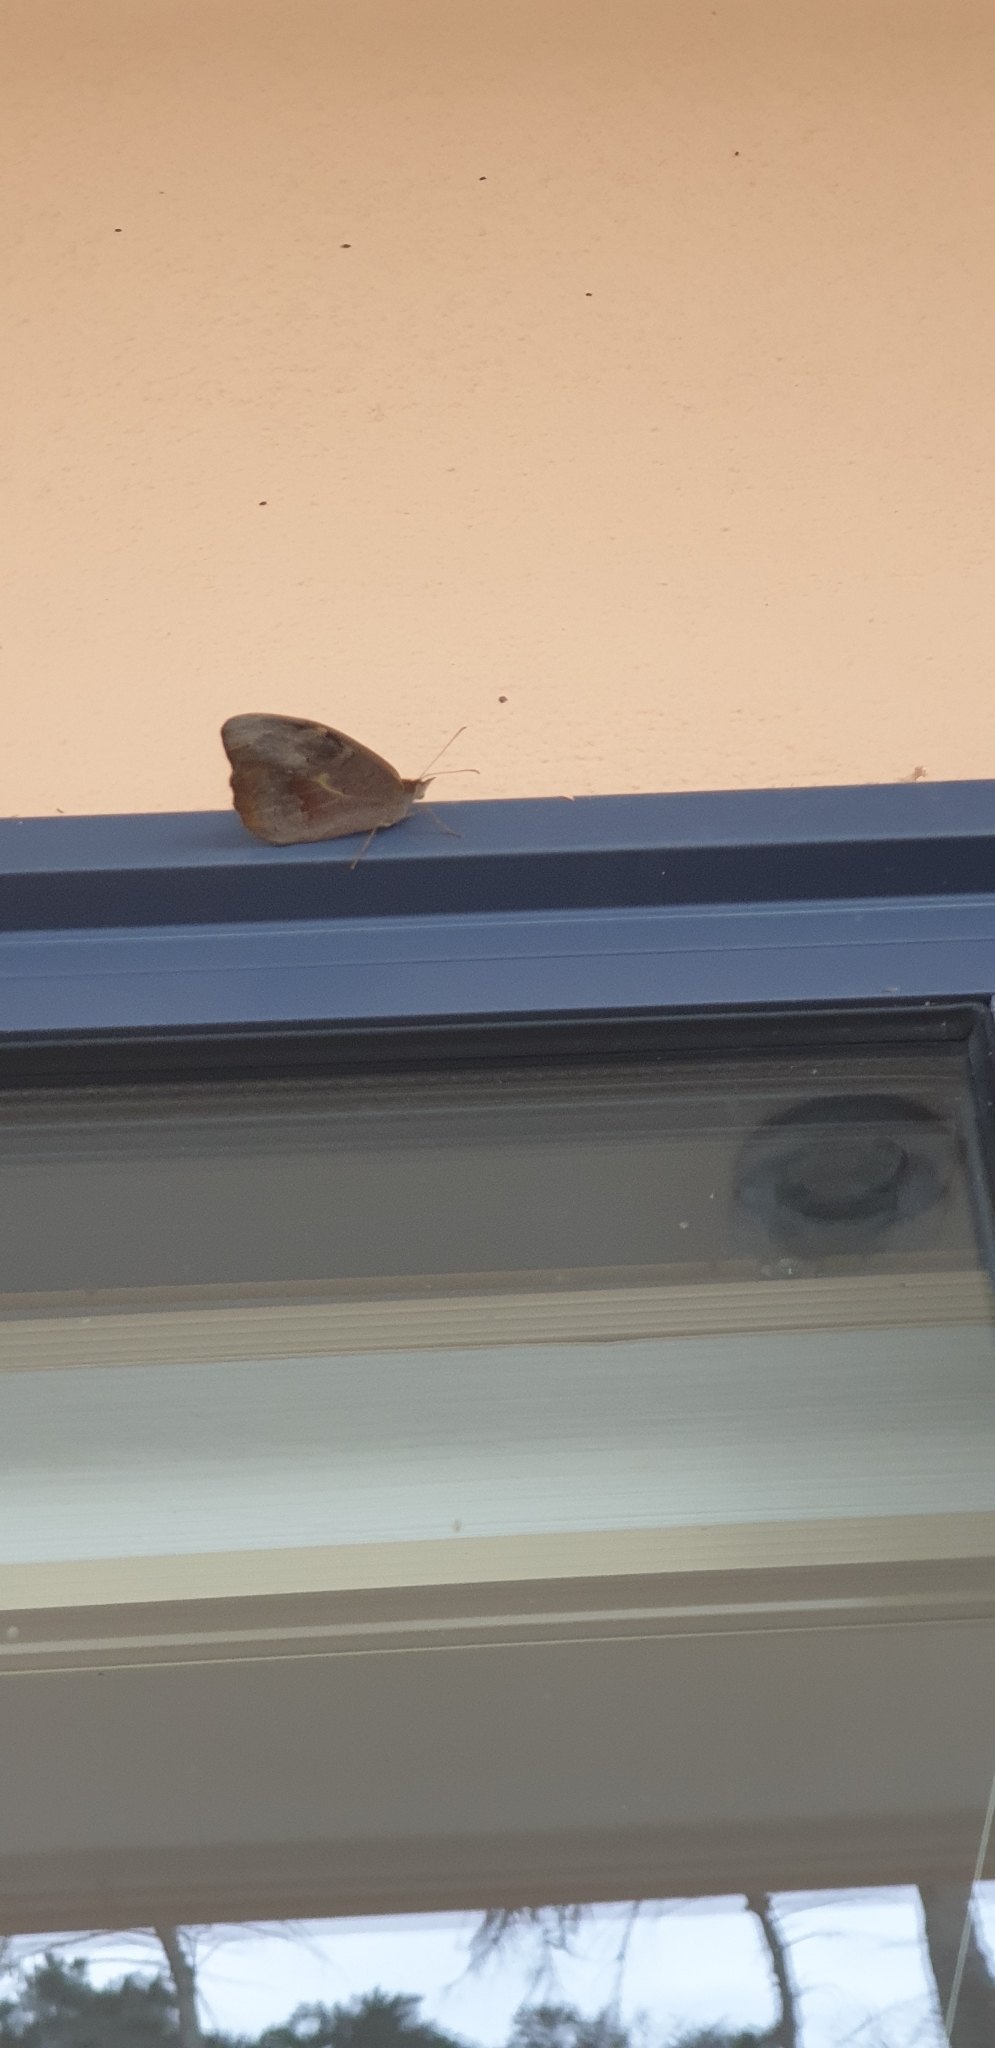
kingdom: Animalia
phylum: Arthropoda
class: Insecta
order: Lepidoptera
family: Nymphalidae
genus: Heteronympha
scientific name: Heteronympha merope
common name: Common brown
